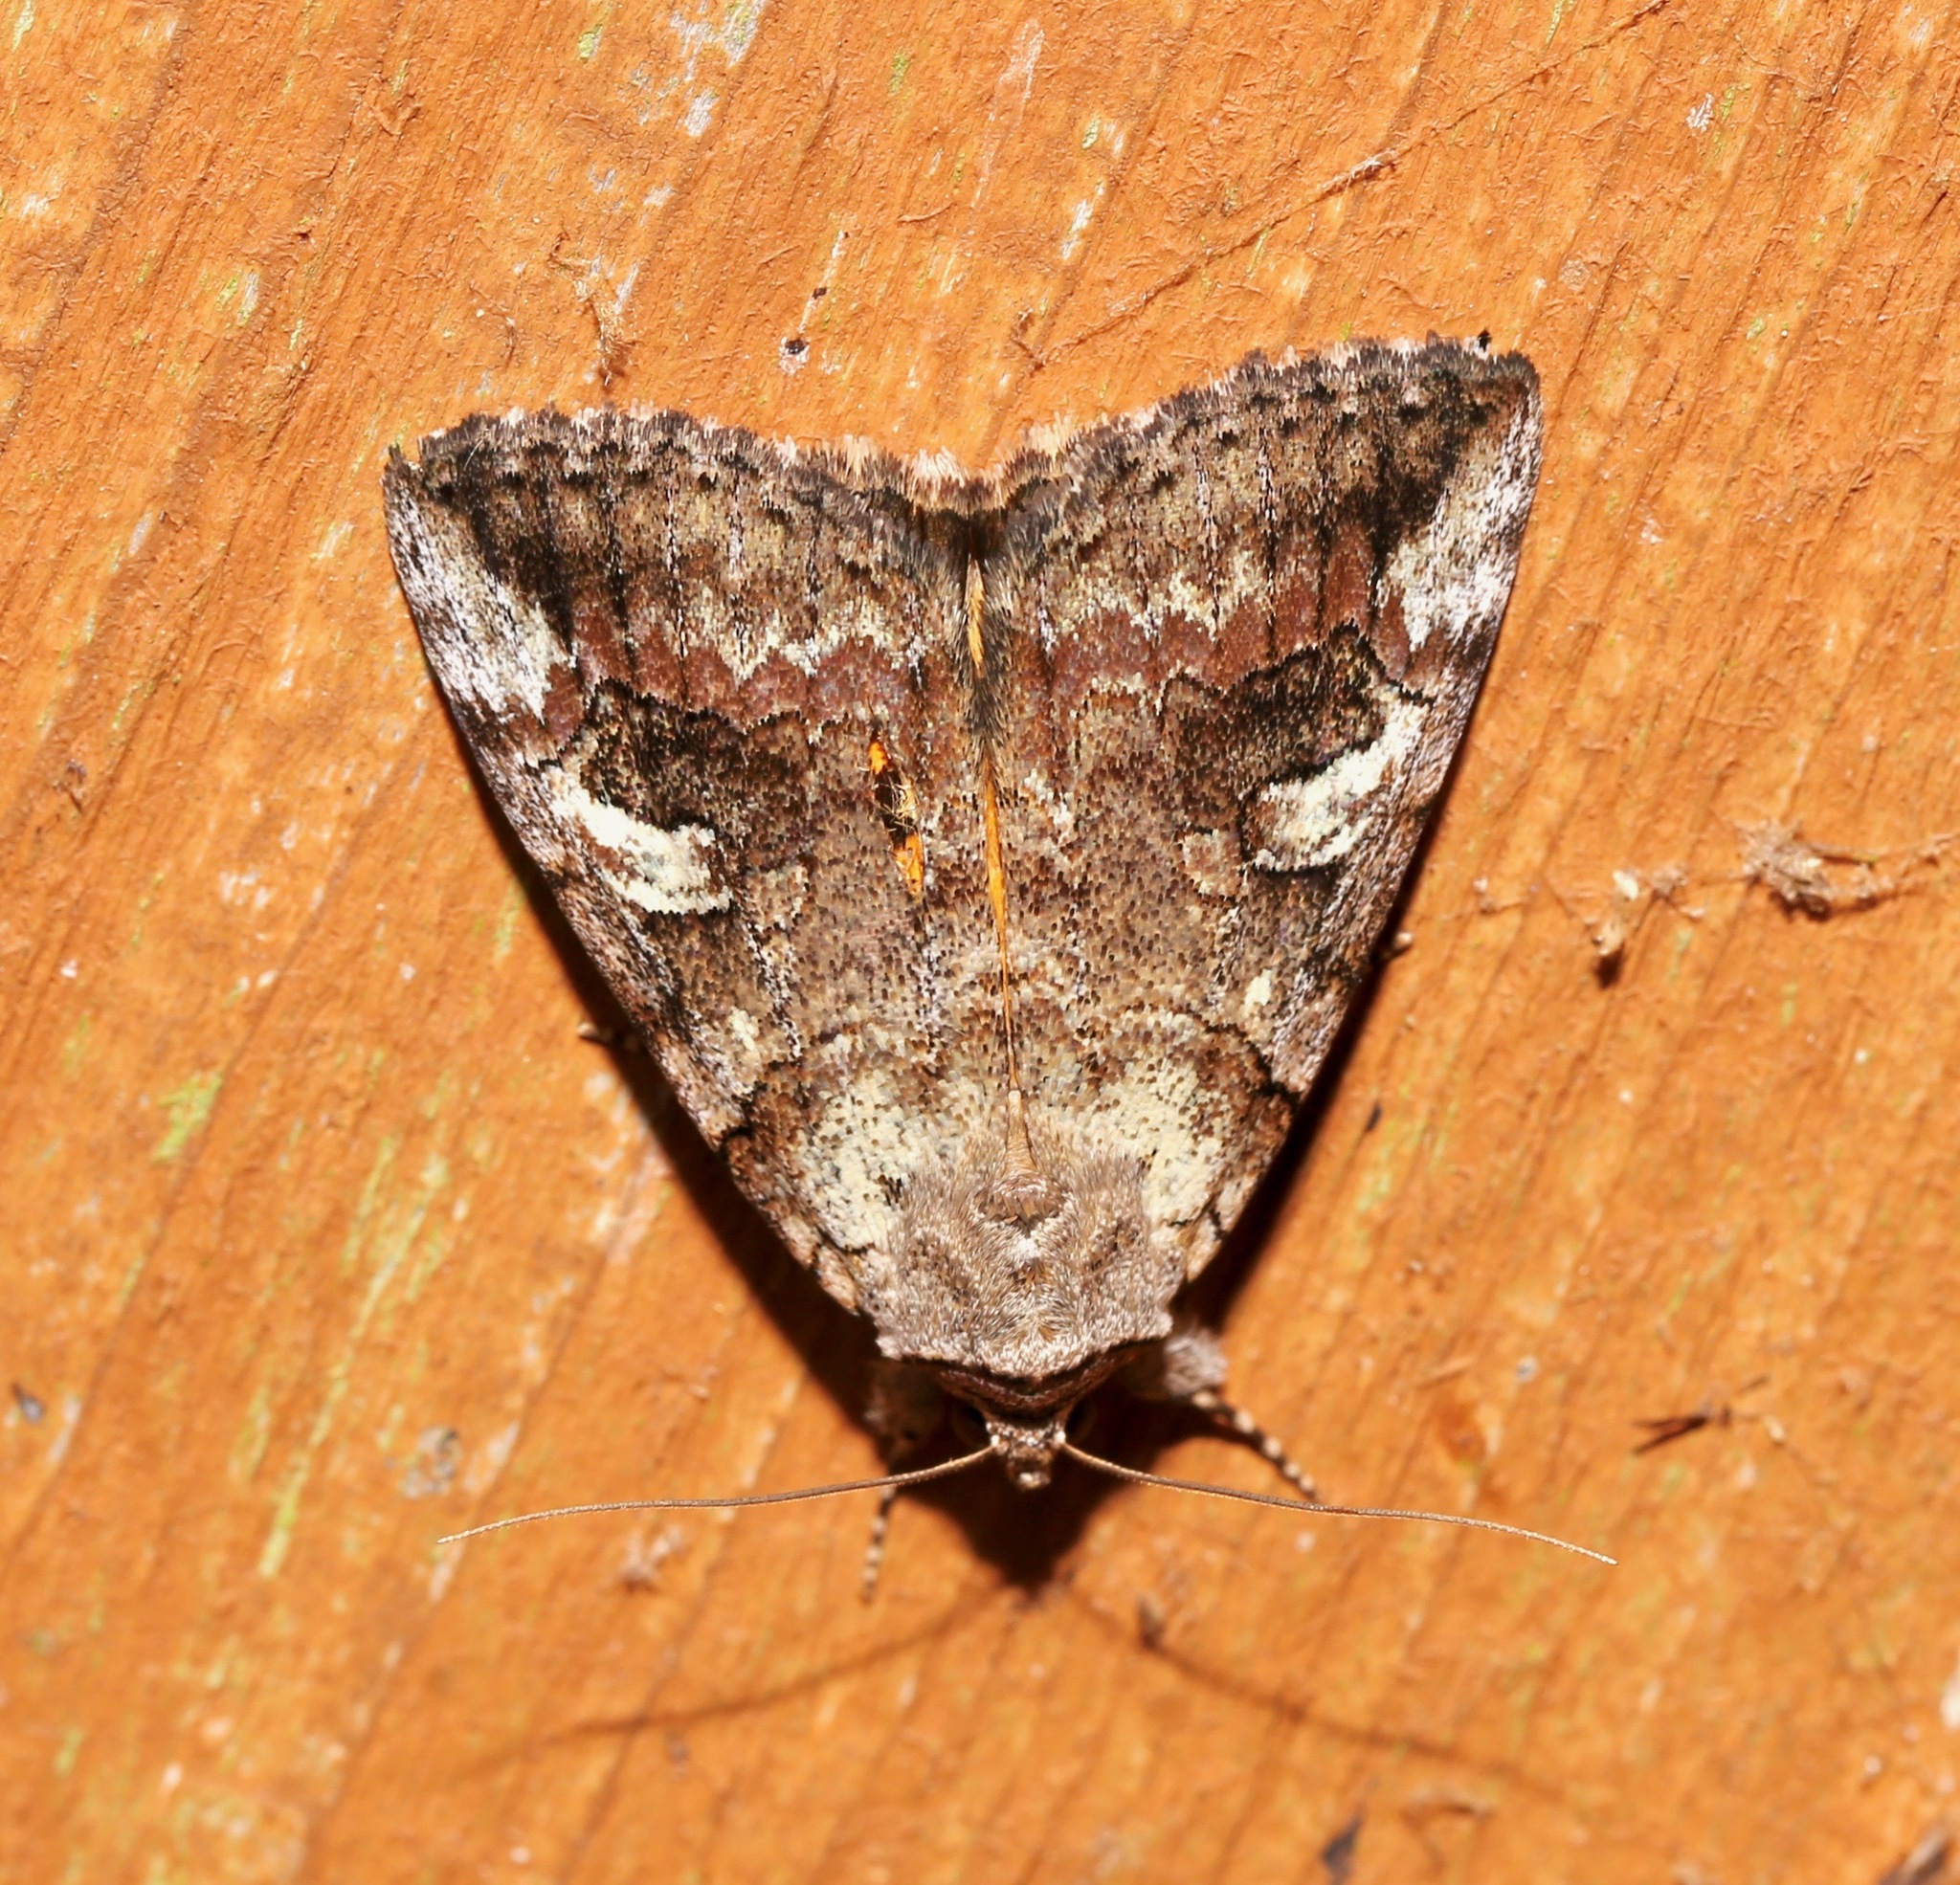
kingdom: Animalia
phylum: Arthropoda
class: Insecta
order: Lepidoptera
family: Erebidae
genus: Catocala
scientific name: Catocala similis
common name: Similar underwing
